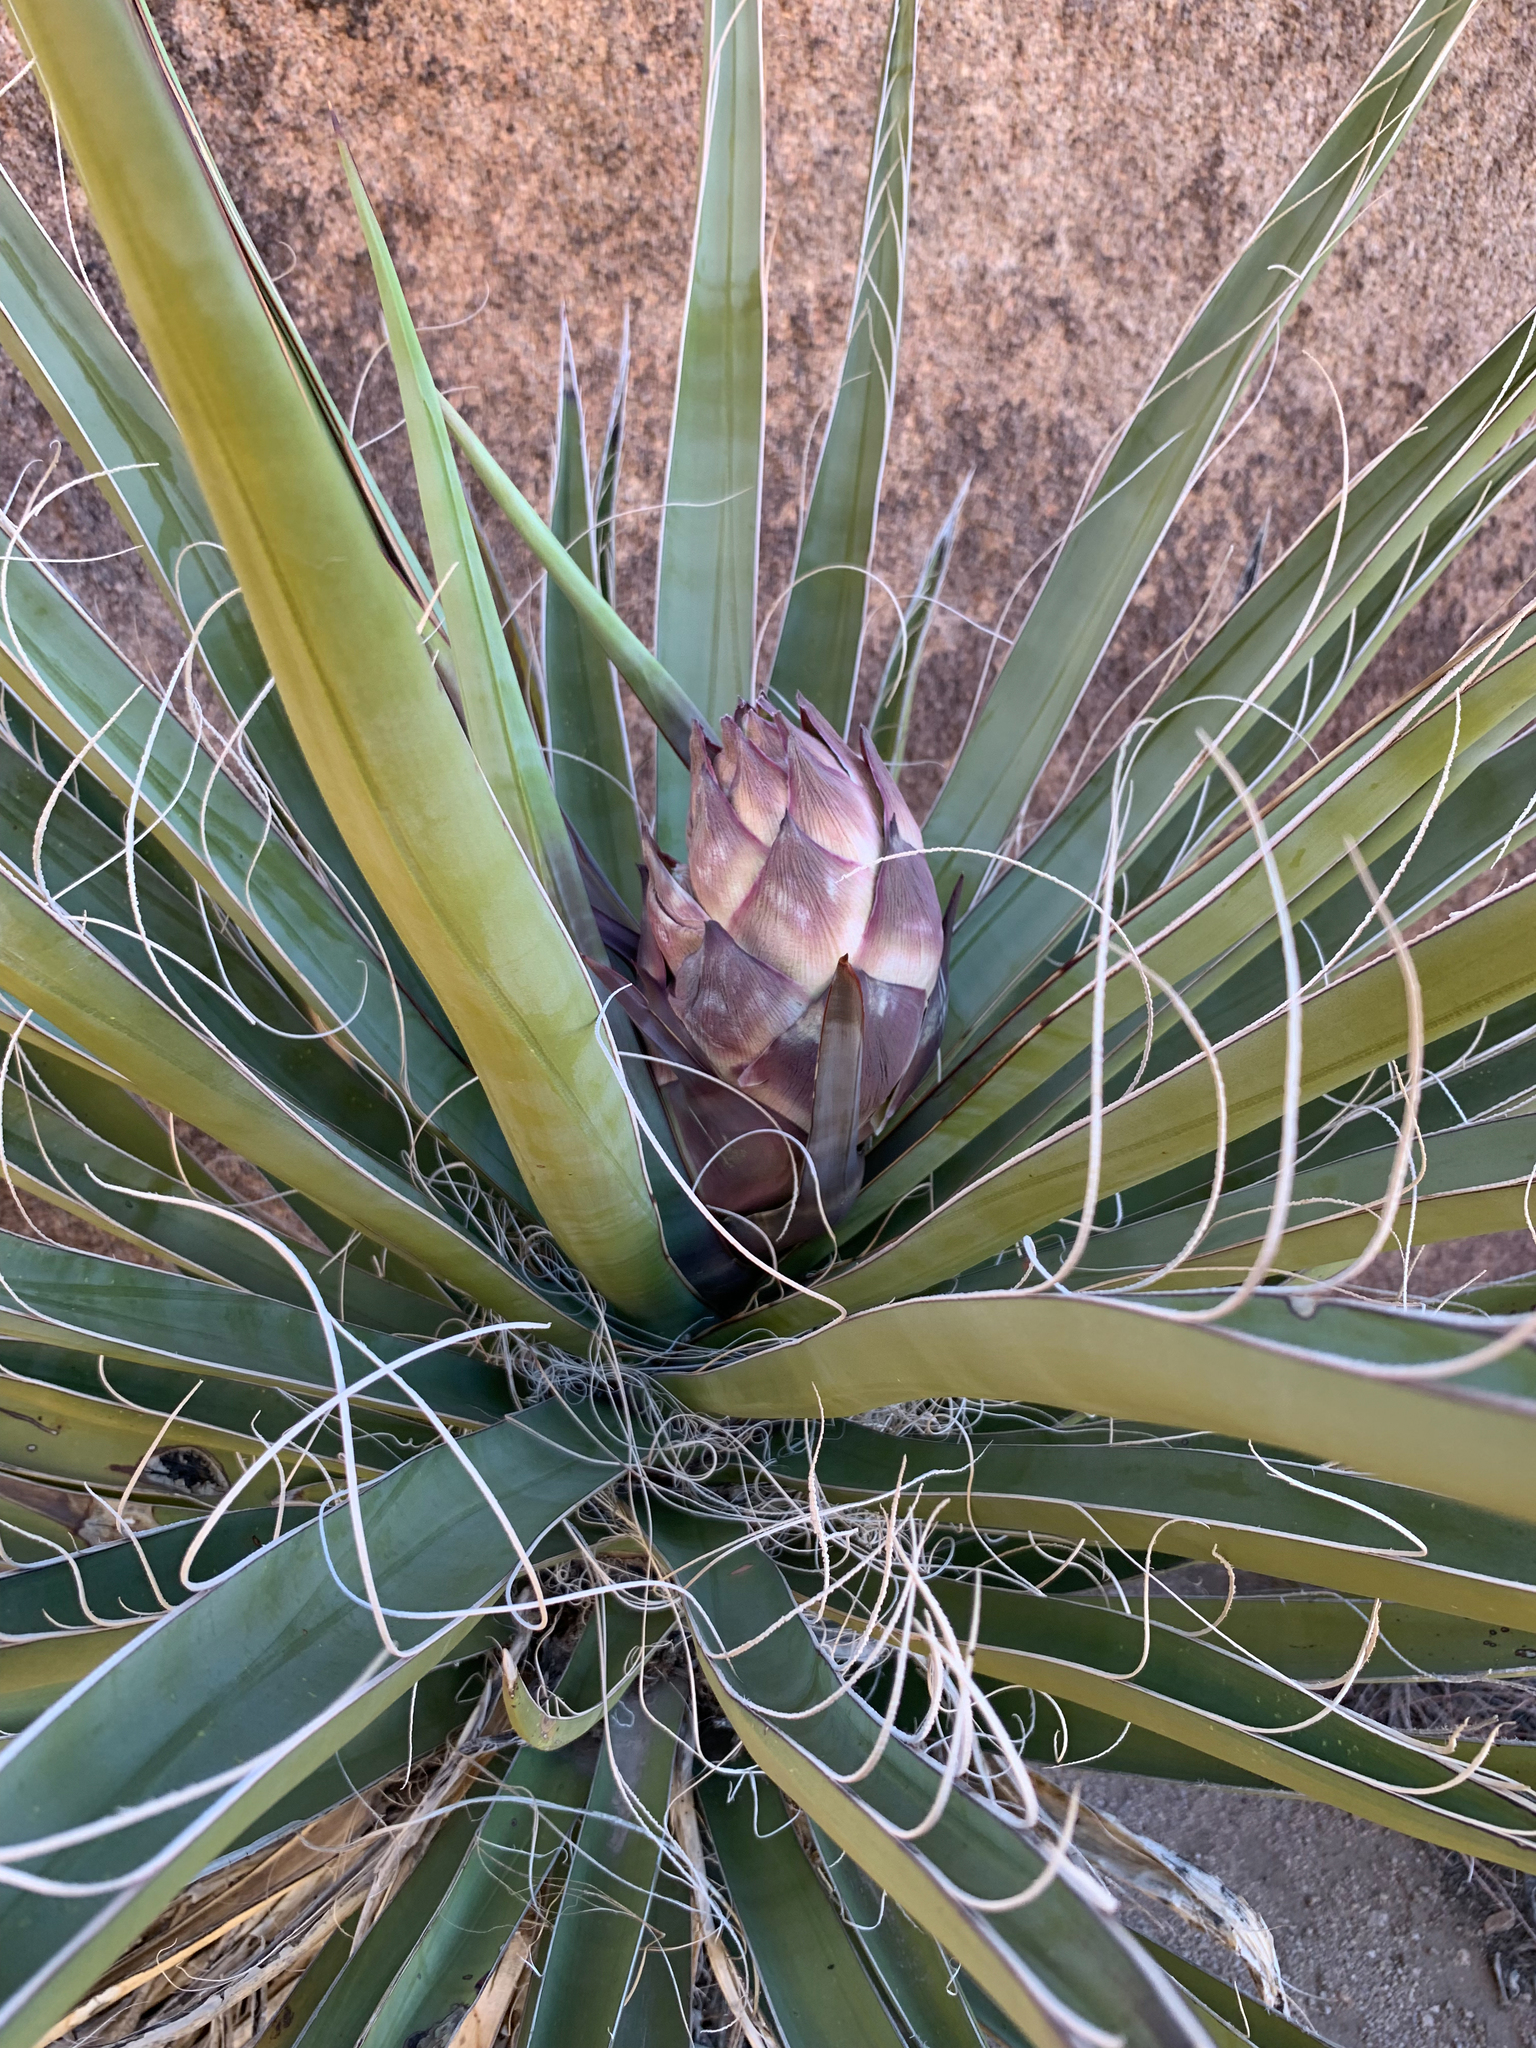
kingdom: Plantae
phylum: Tracheophyta
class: Liliopsida
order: Asparagales
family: Asparagaceae
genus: Yucca
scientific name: Yucca schidigera
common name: Mojave yucca
